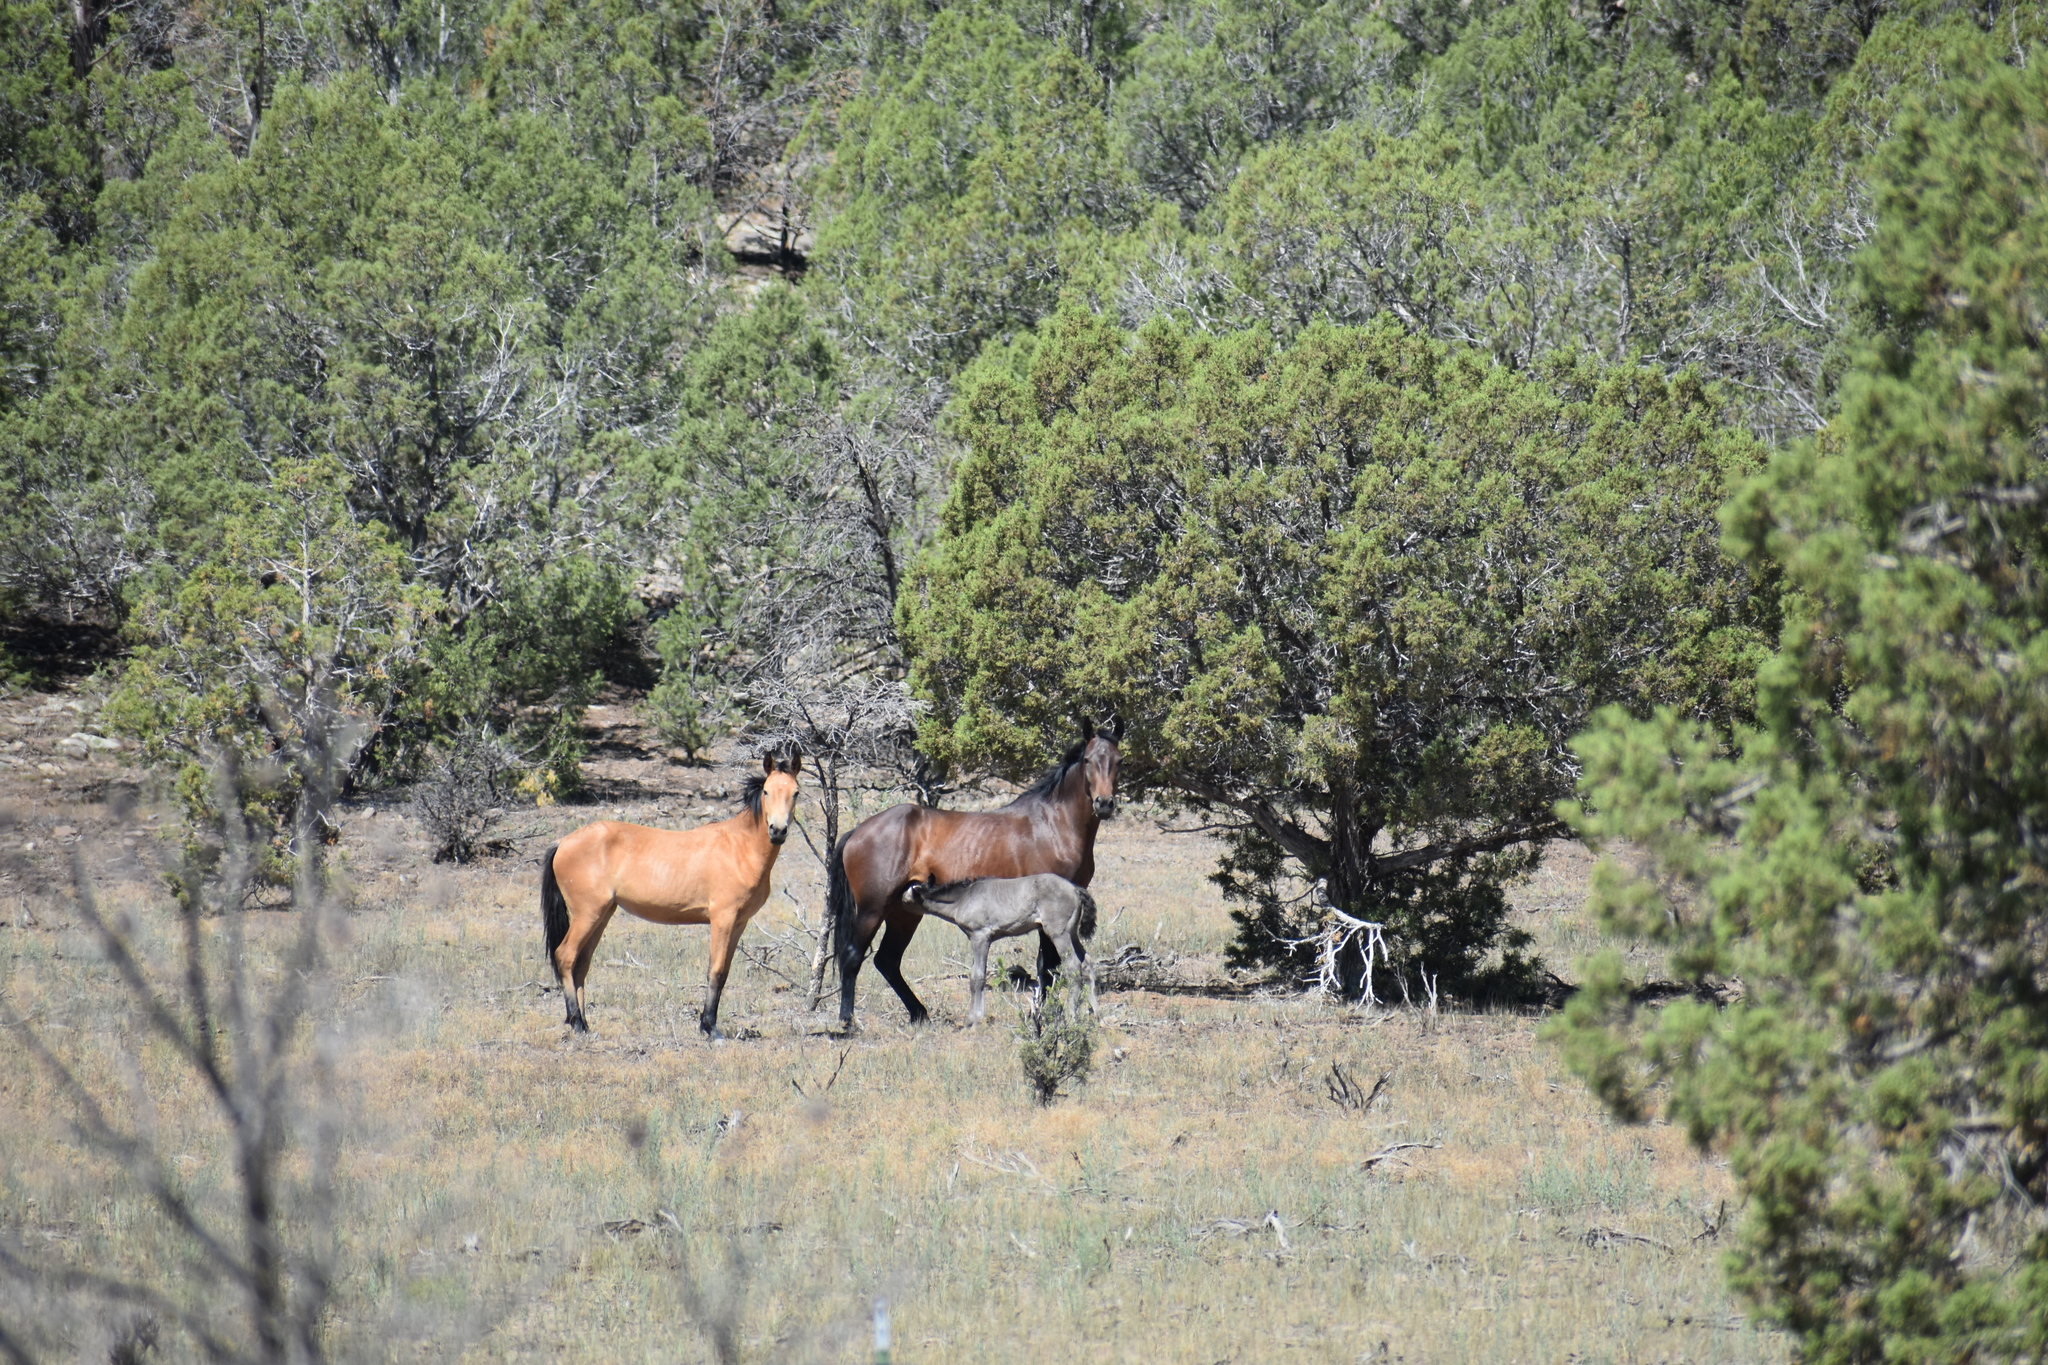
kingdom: Animalia
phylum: Chordata
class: Mammalia
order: Perissodactyla
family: Equidae
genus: Equus
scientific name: Equus caballus
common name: Horse
